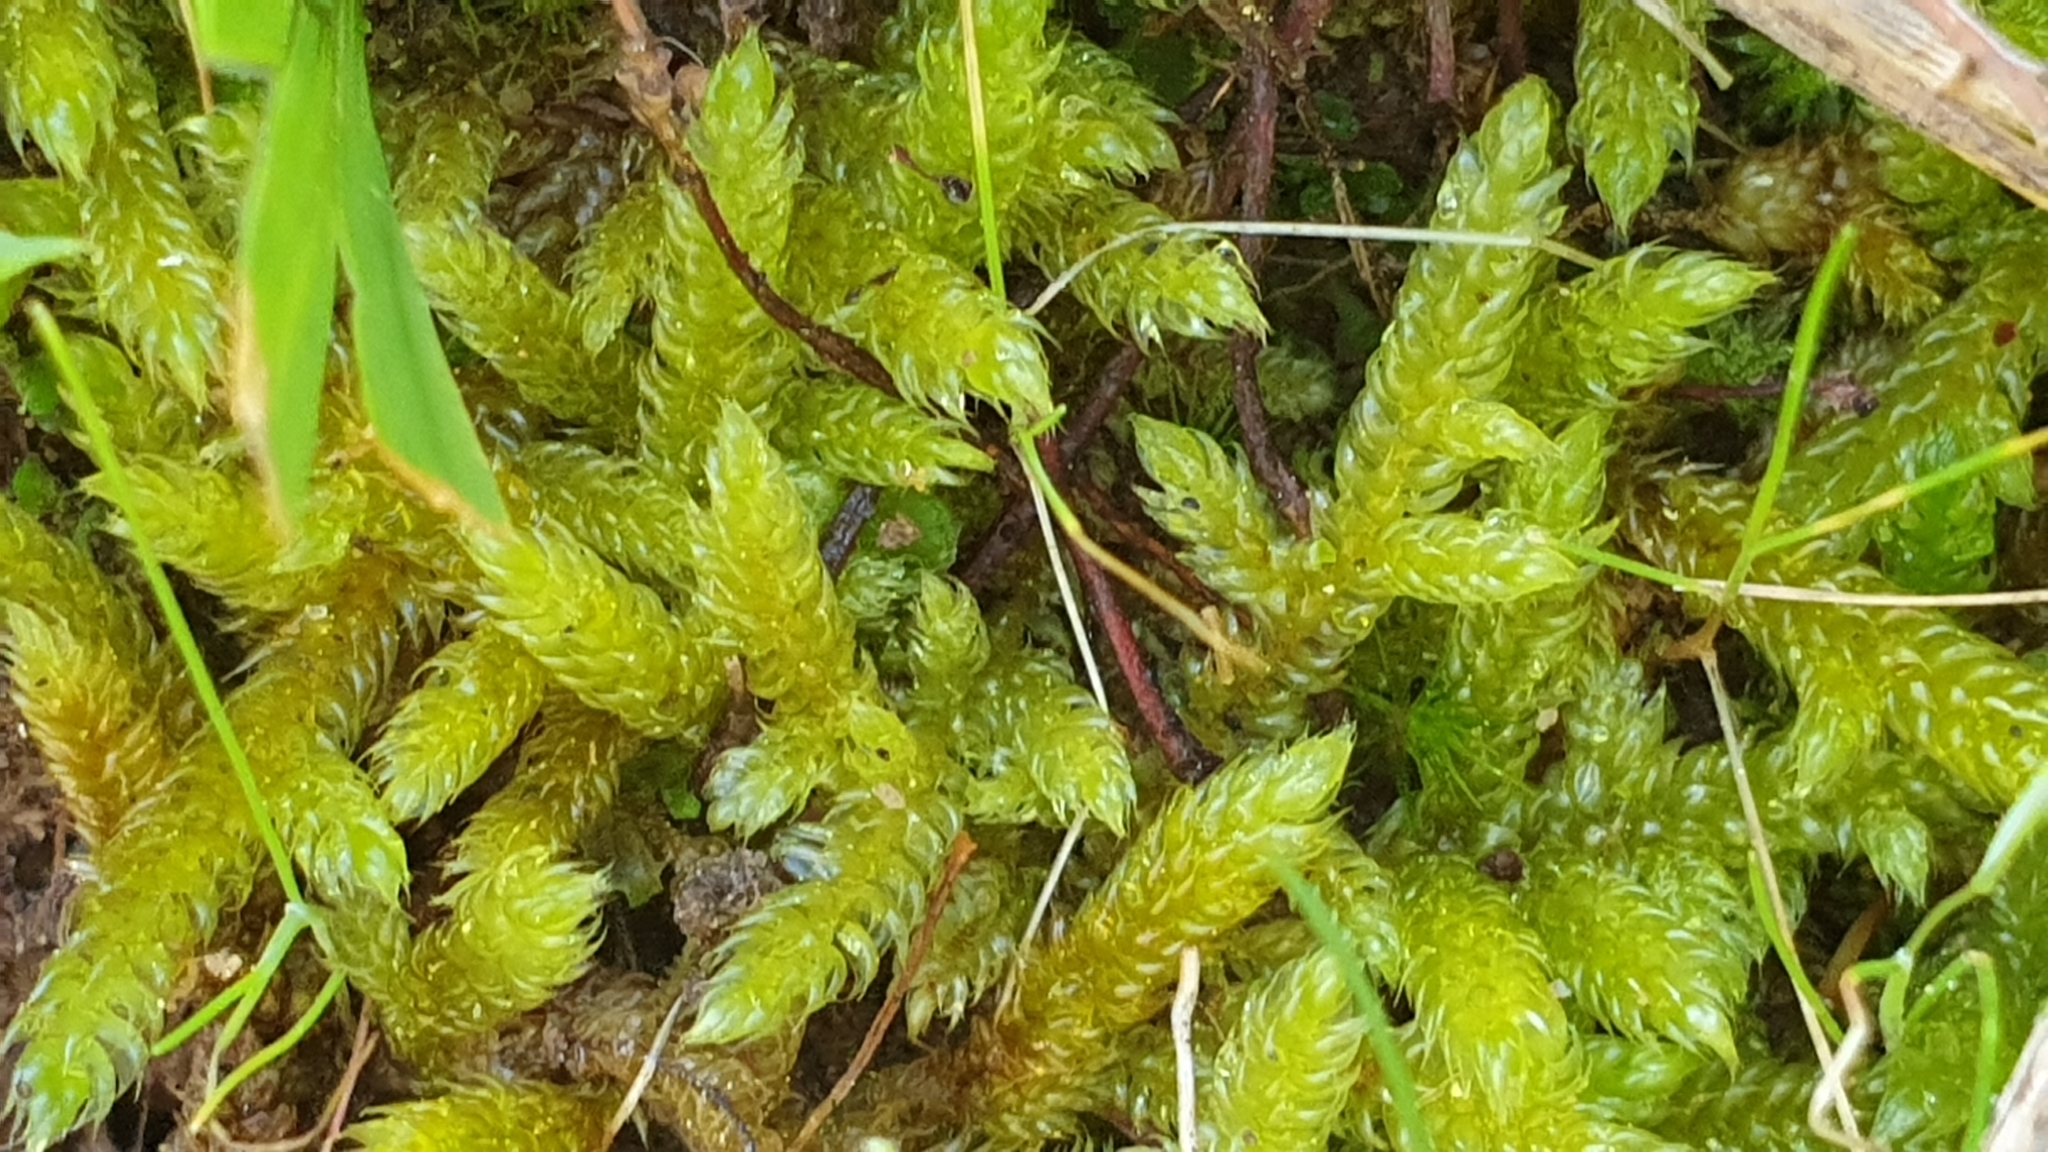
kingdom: Plantae
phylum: Bryophyta
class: Bryopsida
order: Hypnales
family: Hypnaceae
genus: Hypnum
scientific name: Hypnum cupressiforme
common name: Cypress-leaved plait-moss
